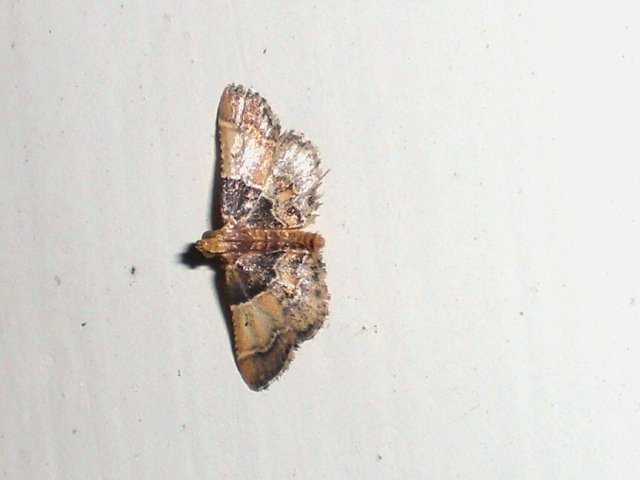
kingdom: Animalia
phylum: Arthropoda
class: Insecta
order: Lepidoptera
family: Pyralidae
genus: Pyralis
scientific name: Pyralis pictalis
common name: Painted meal moth
